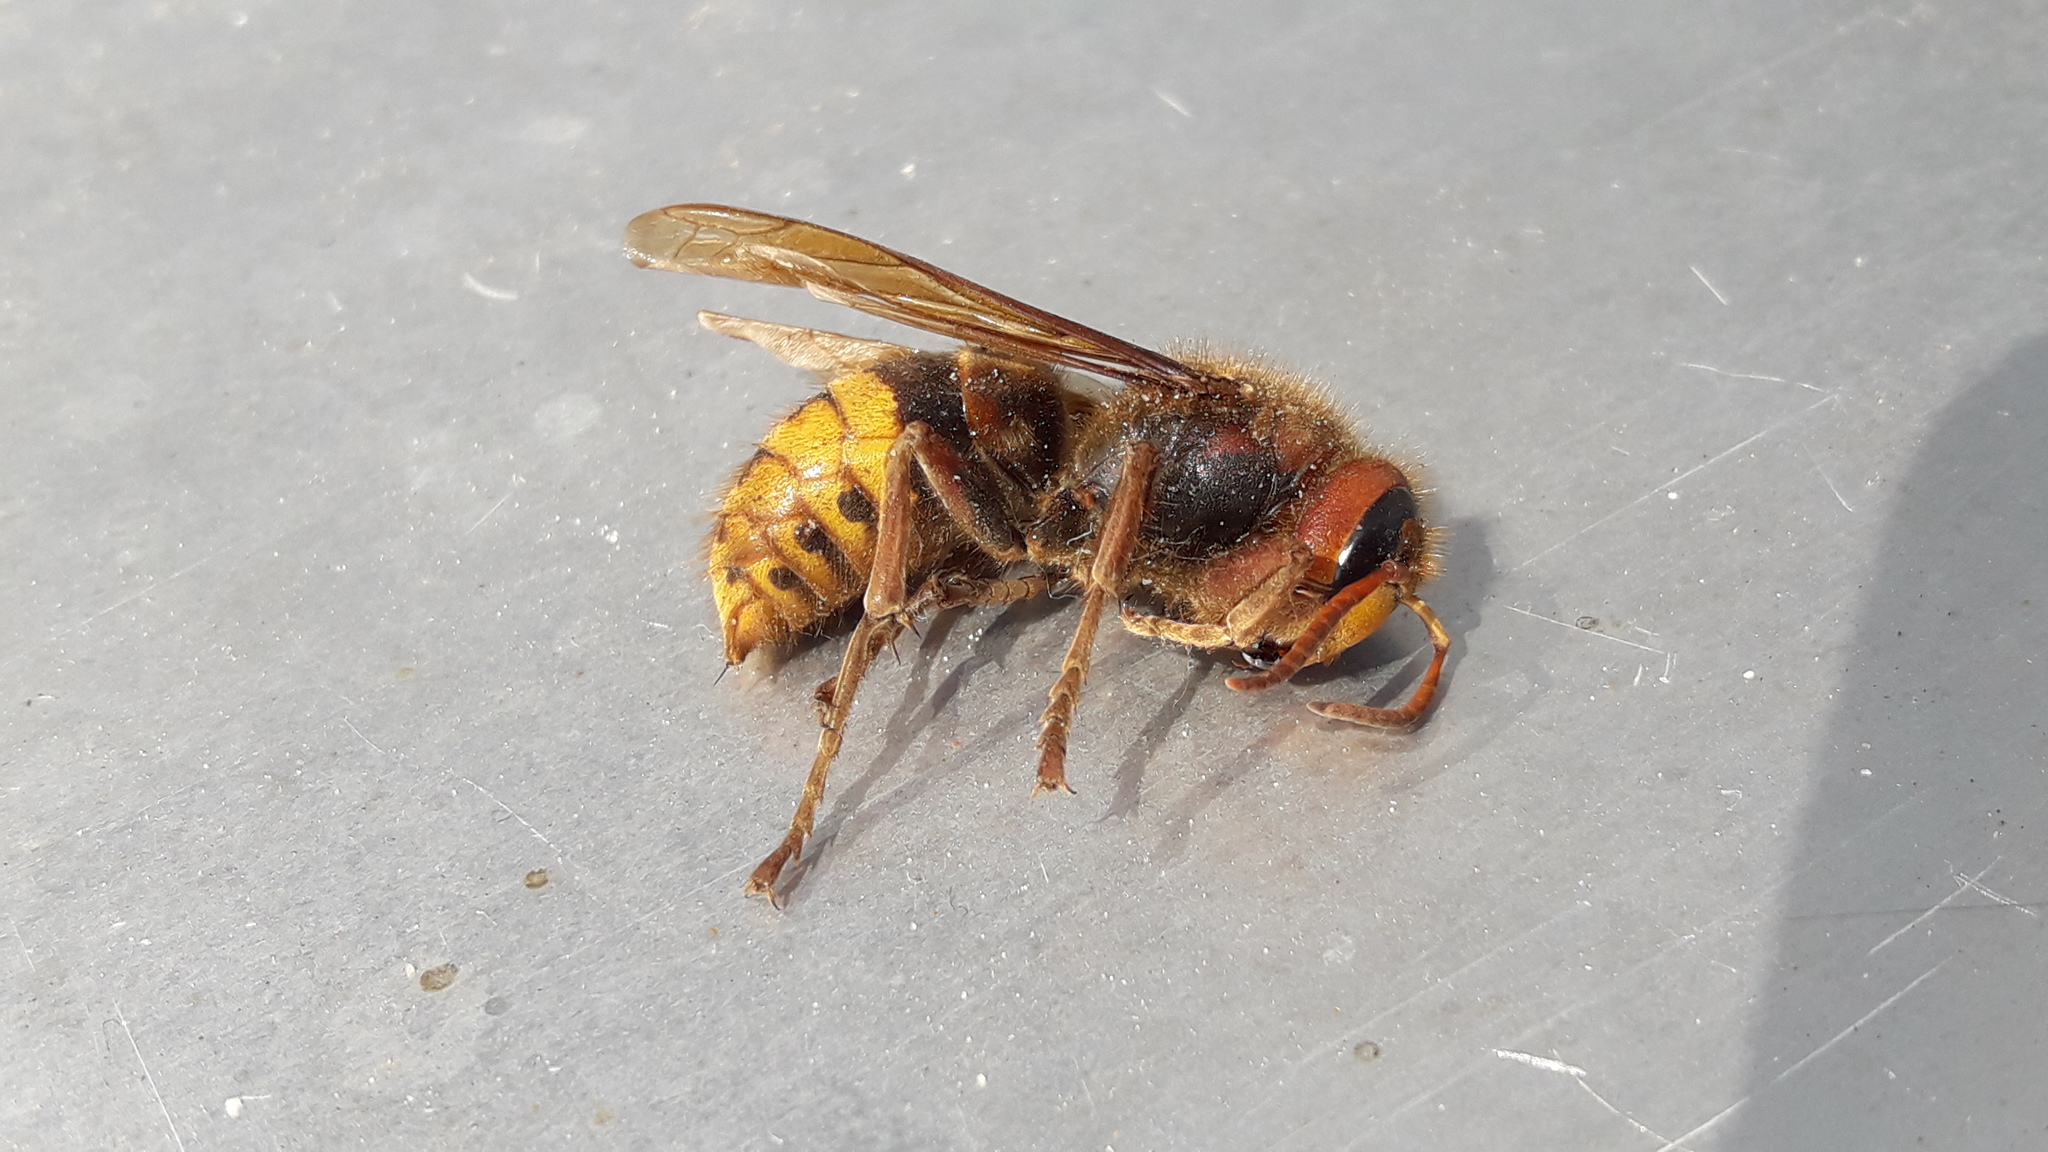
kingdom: Animalia
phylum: Arthropoda
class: Insecta
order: Hymenoptera
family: Vespidae
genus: Vespa
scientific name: Vespa crabro
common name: Hornet
